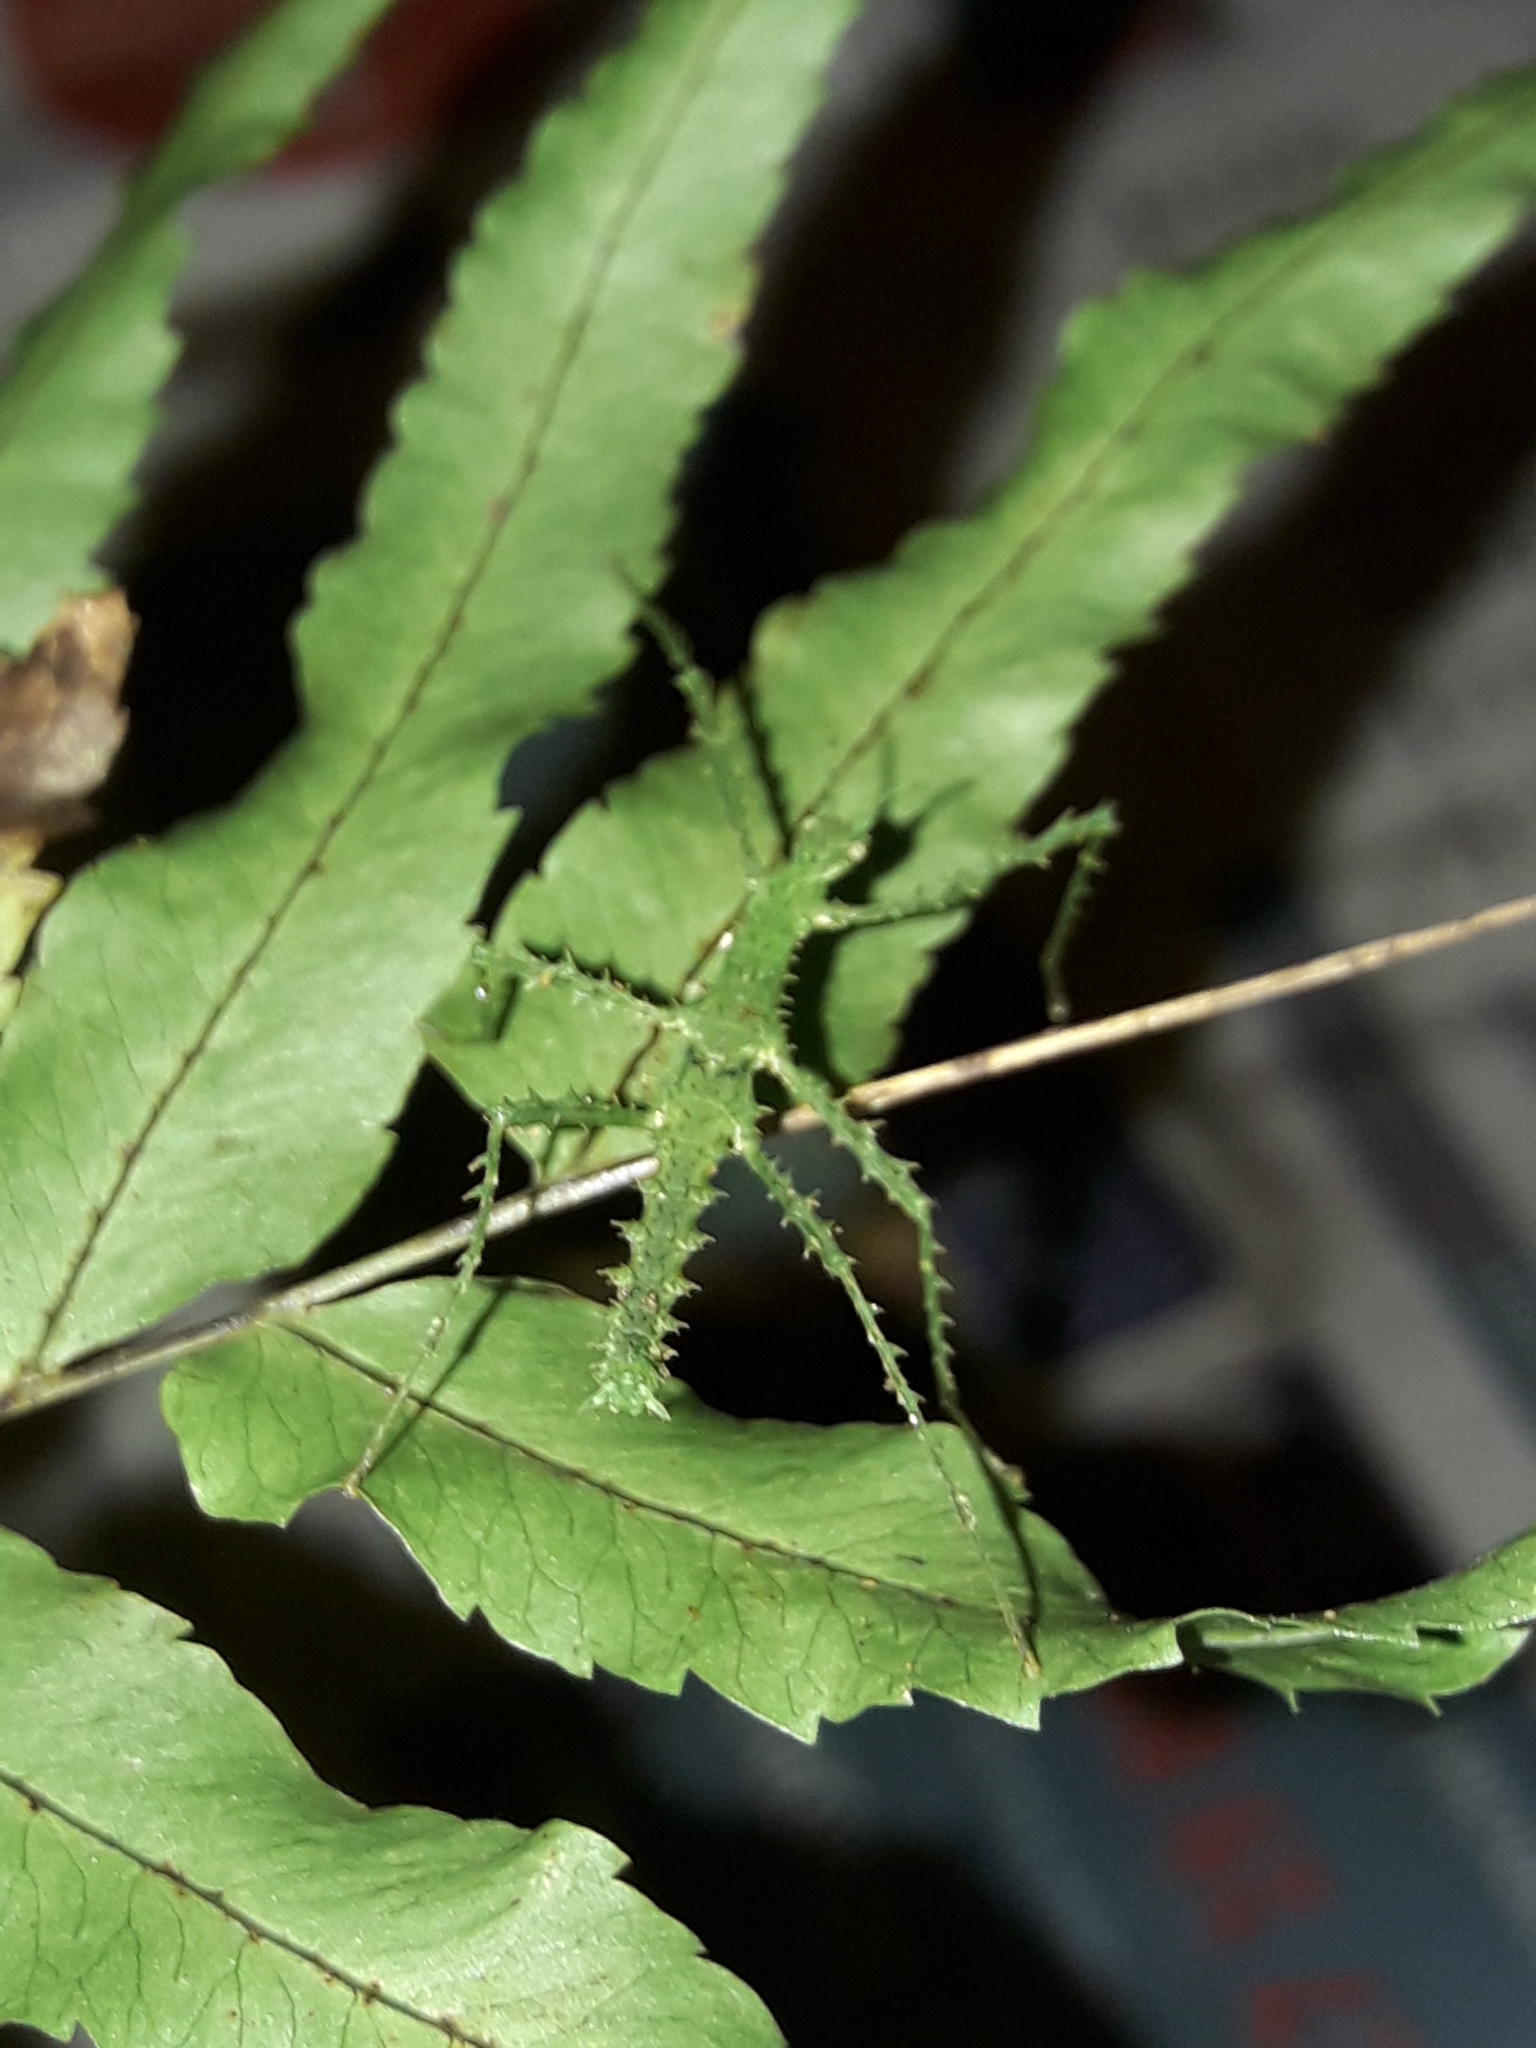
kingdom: Animalia
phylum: Arthropoda
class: Insecta
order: Phasmida
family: Phasmatidae
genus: Cnipsus
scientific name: Cnipsus rachis
